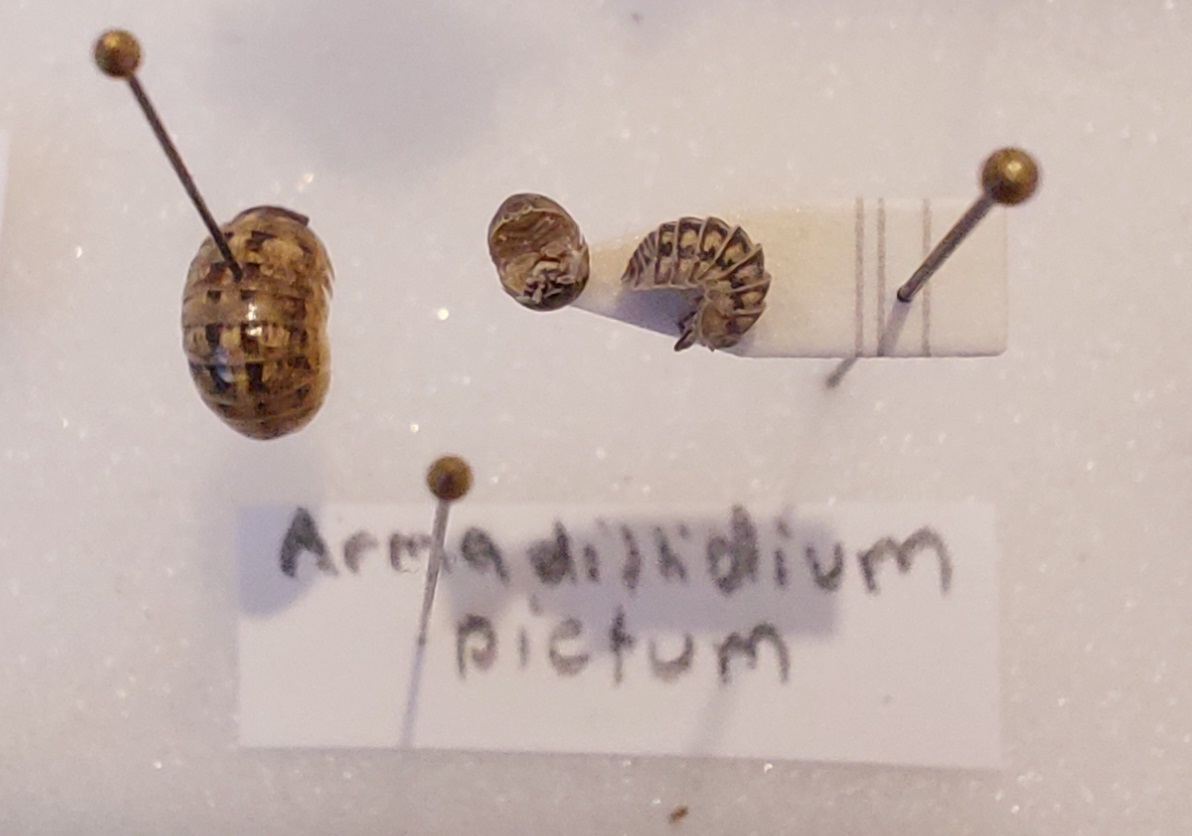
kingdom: Animalia
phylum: Arthropoda
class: Malacostraca
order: Isopoda
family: Armadillidiidae
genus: Armadillidium
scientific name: Armadillidium nasatum
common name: Isopod
